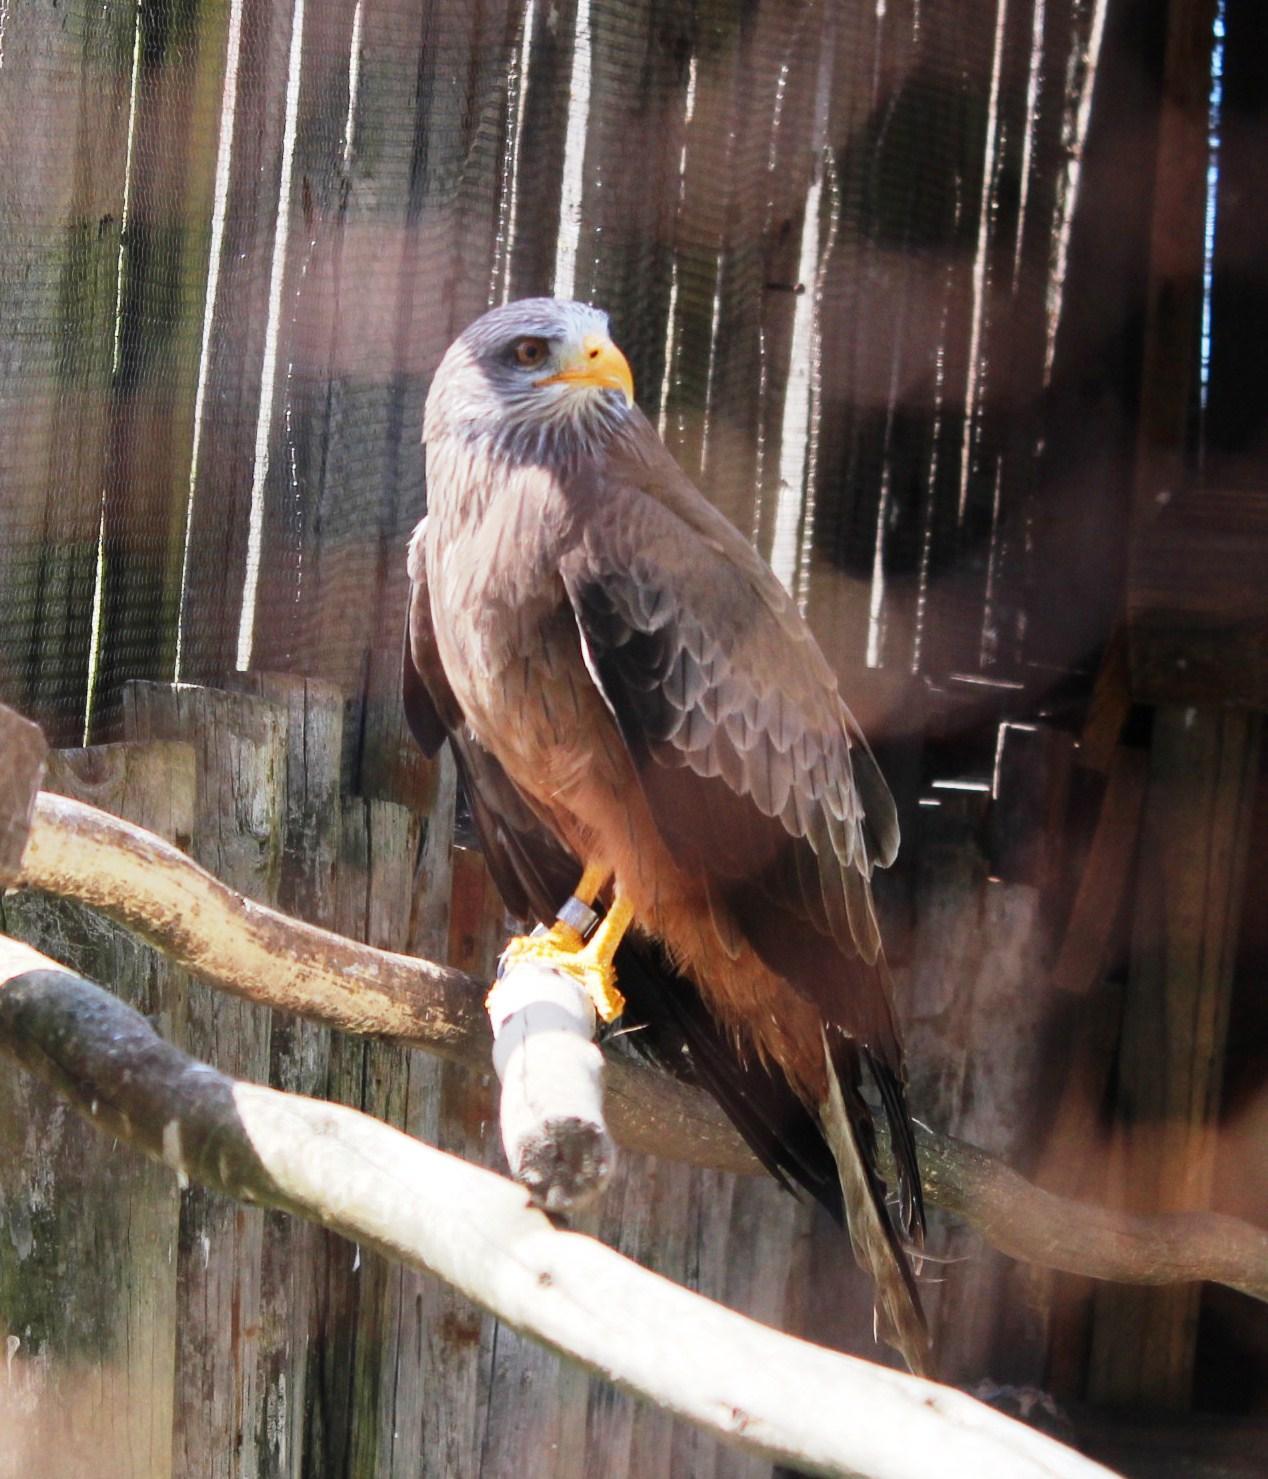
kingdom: Animalia
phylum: Chordata
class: Aves
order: Accipitriformes
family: Accipitridae
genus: Milvus
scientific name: Milvus migrans
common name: Black kite
